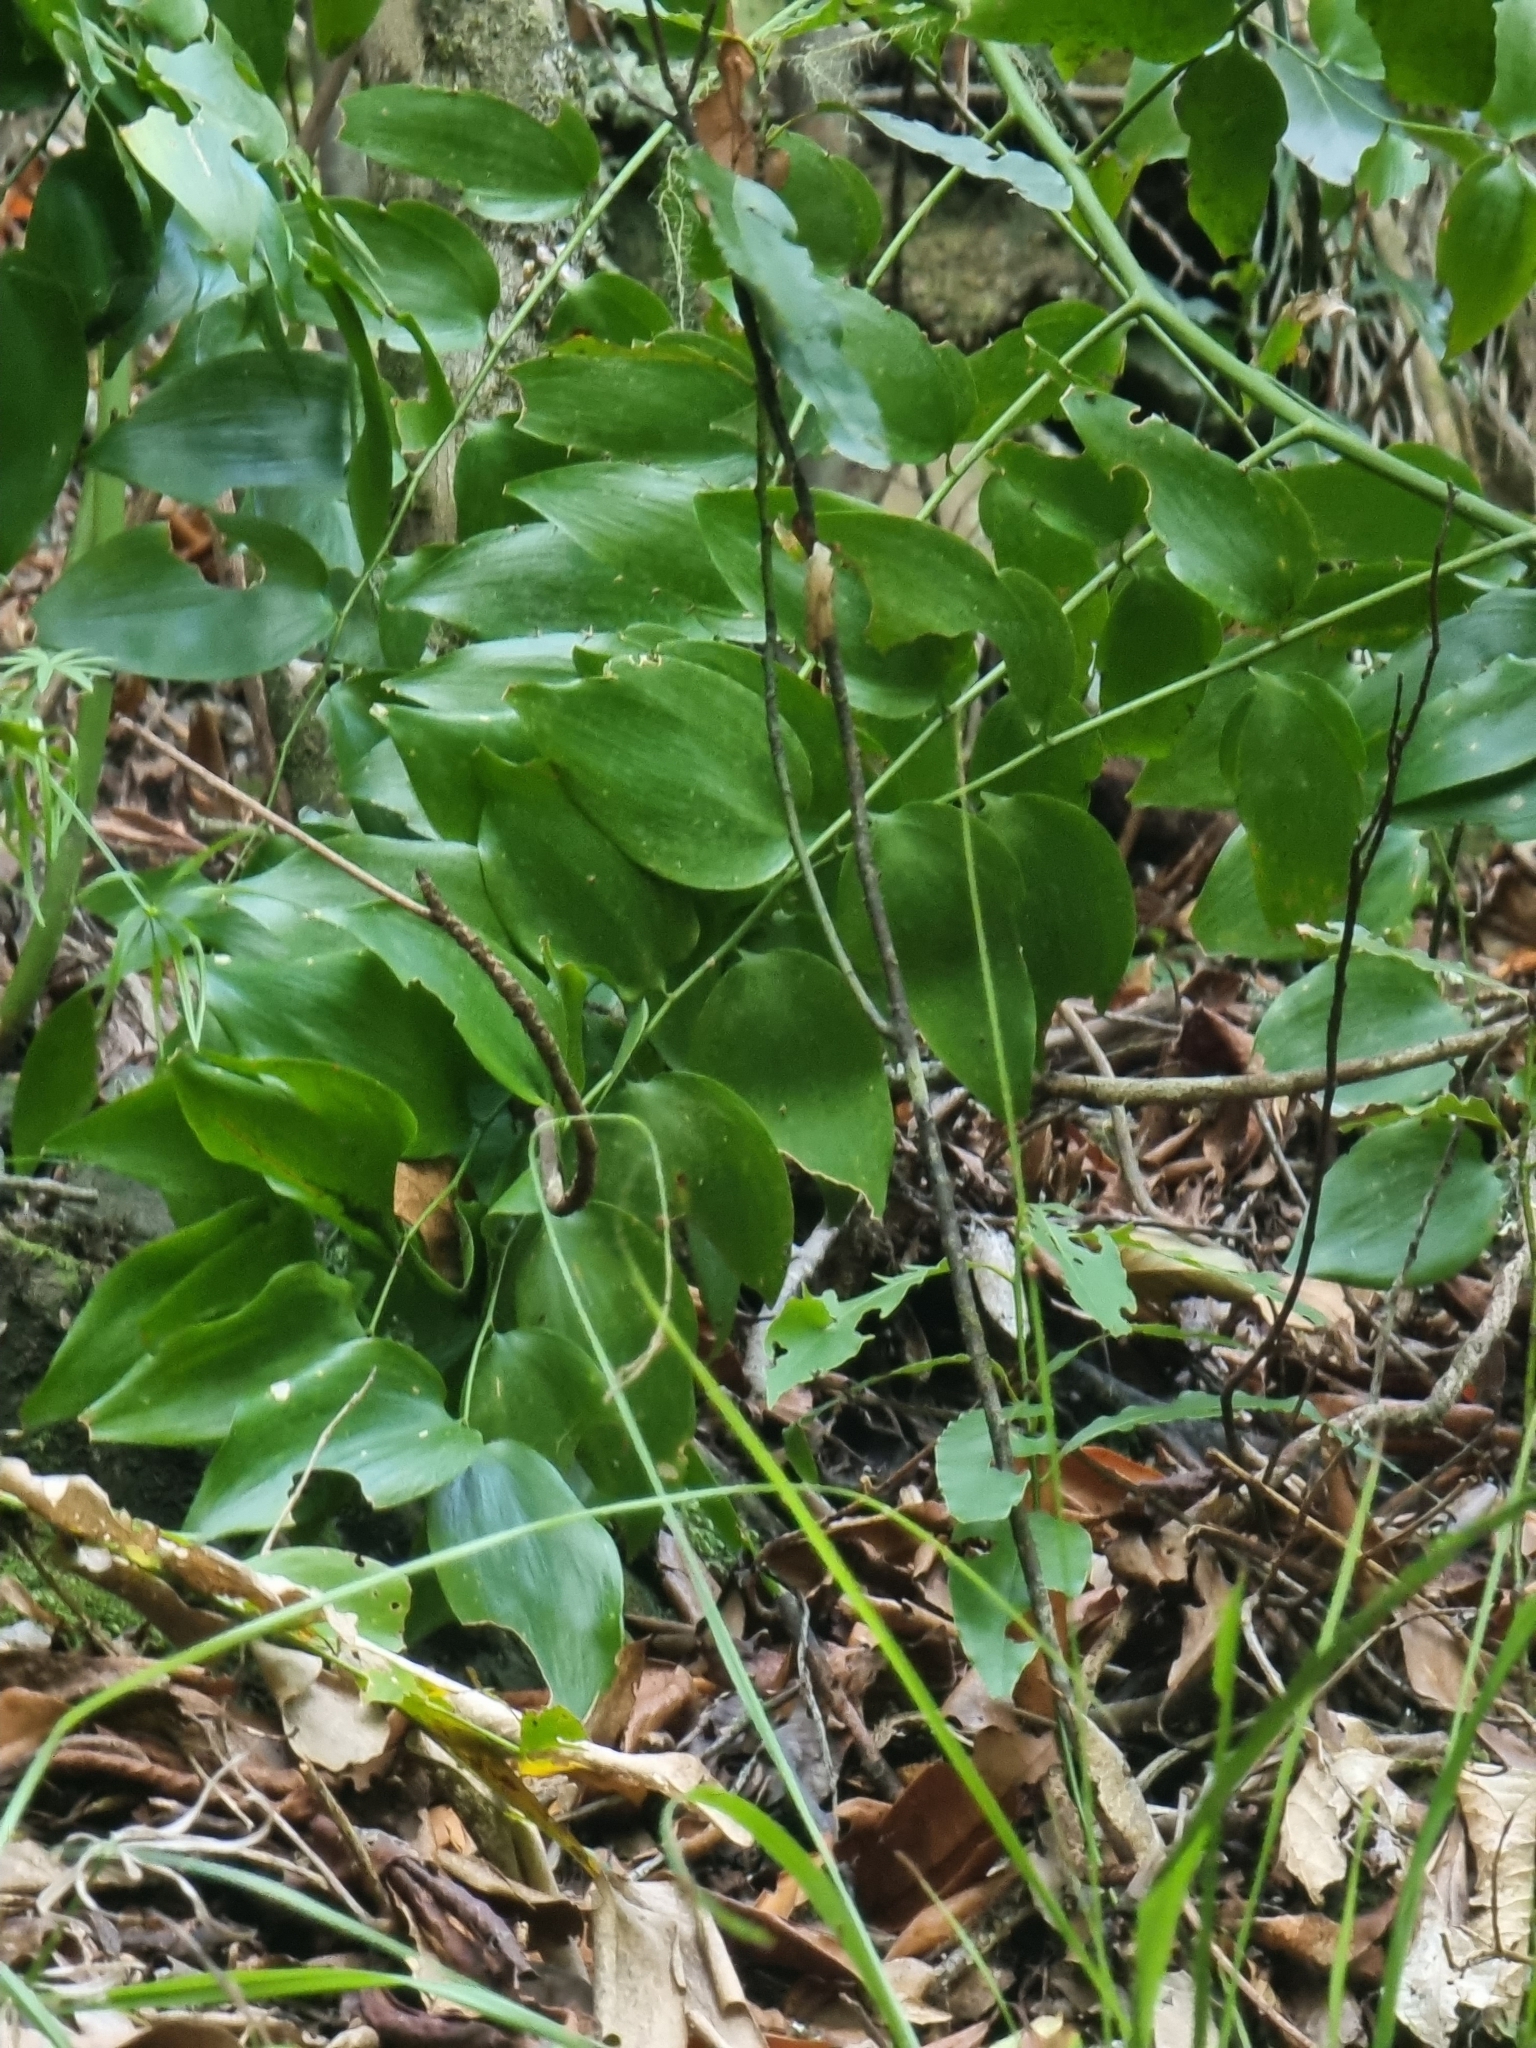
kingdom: Plantae
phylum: Tracheophyta
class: Liliopsida
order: Asparagales
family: Asparagaceae
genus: Semele
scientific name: Semele androgyna
